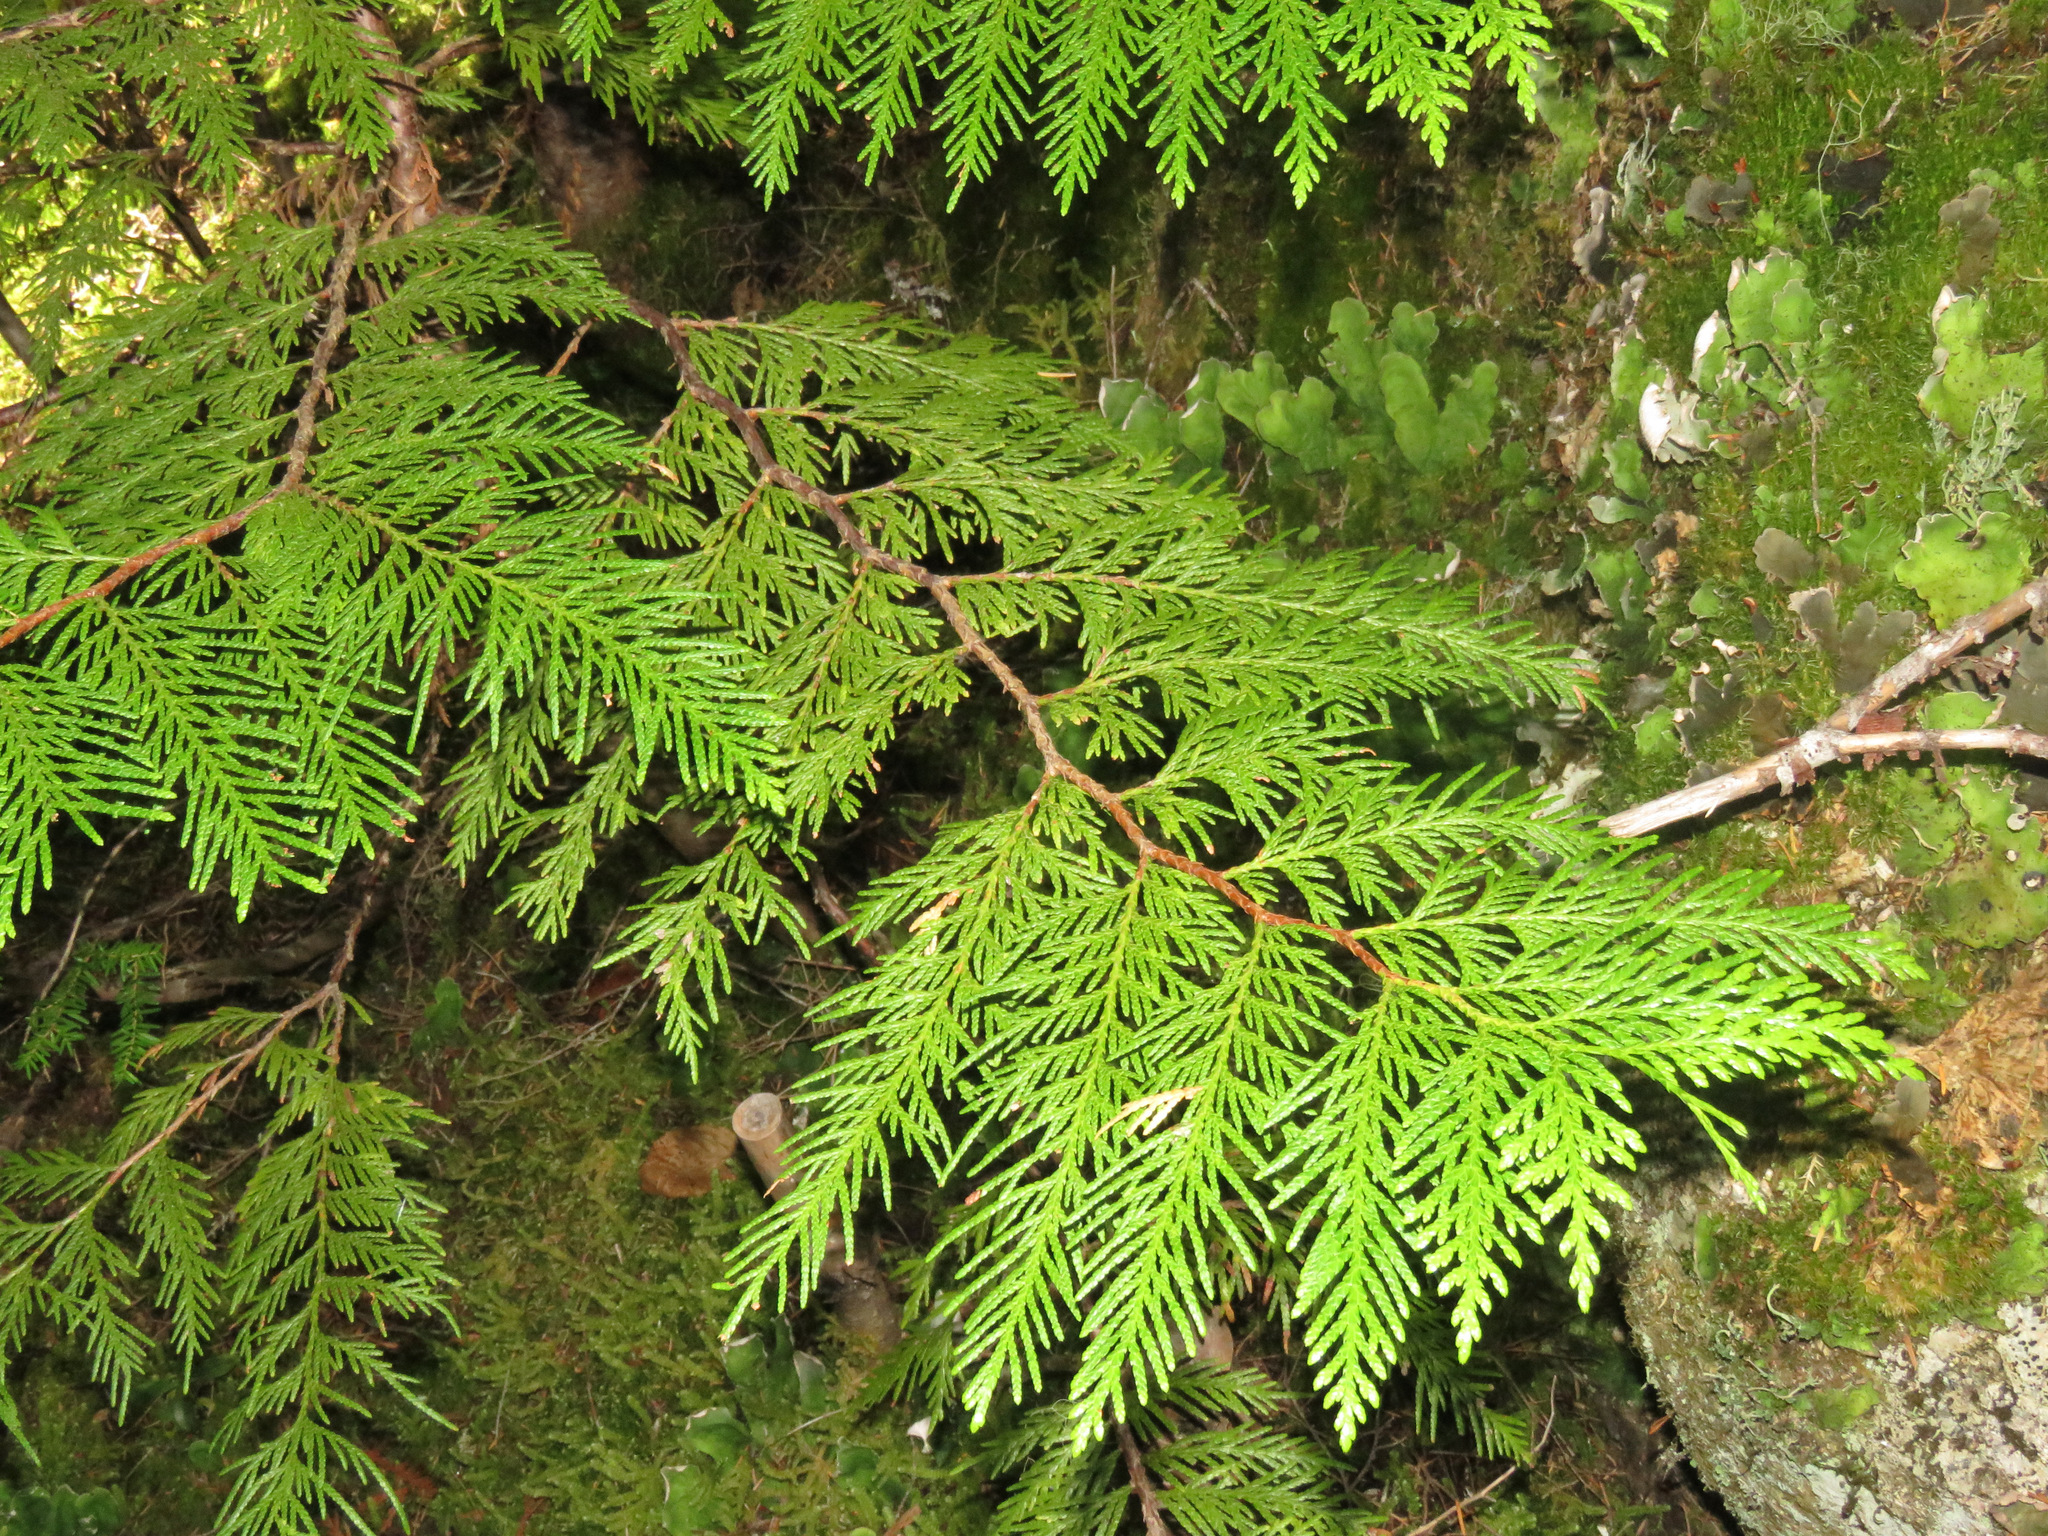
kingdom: Plantae
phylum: Tracheophyta
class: Pinopsida
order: Pinales
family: Cupressaceae
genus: Thuja
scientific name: Thuja plicata
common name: Western red-cedar
